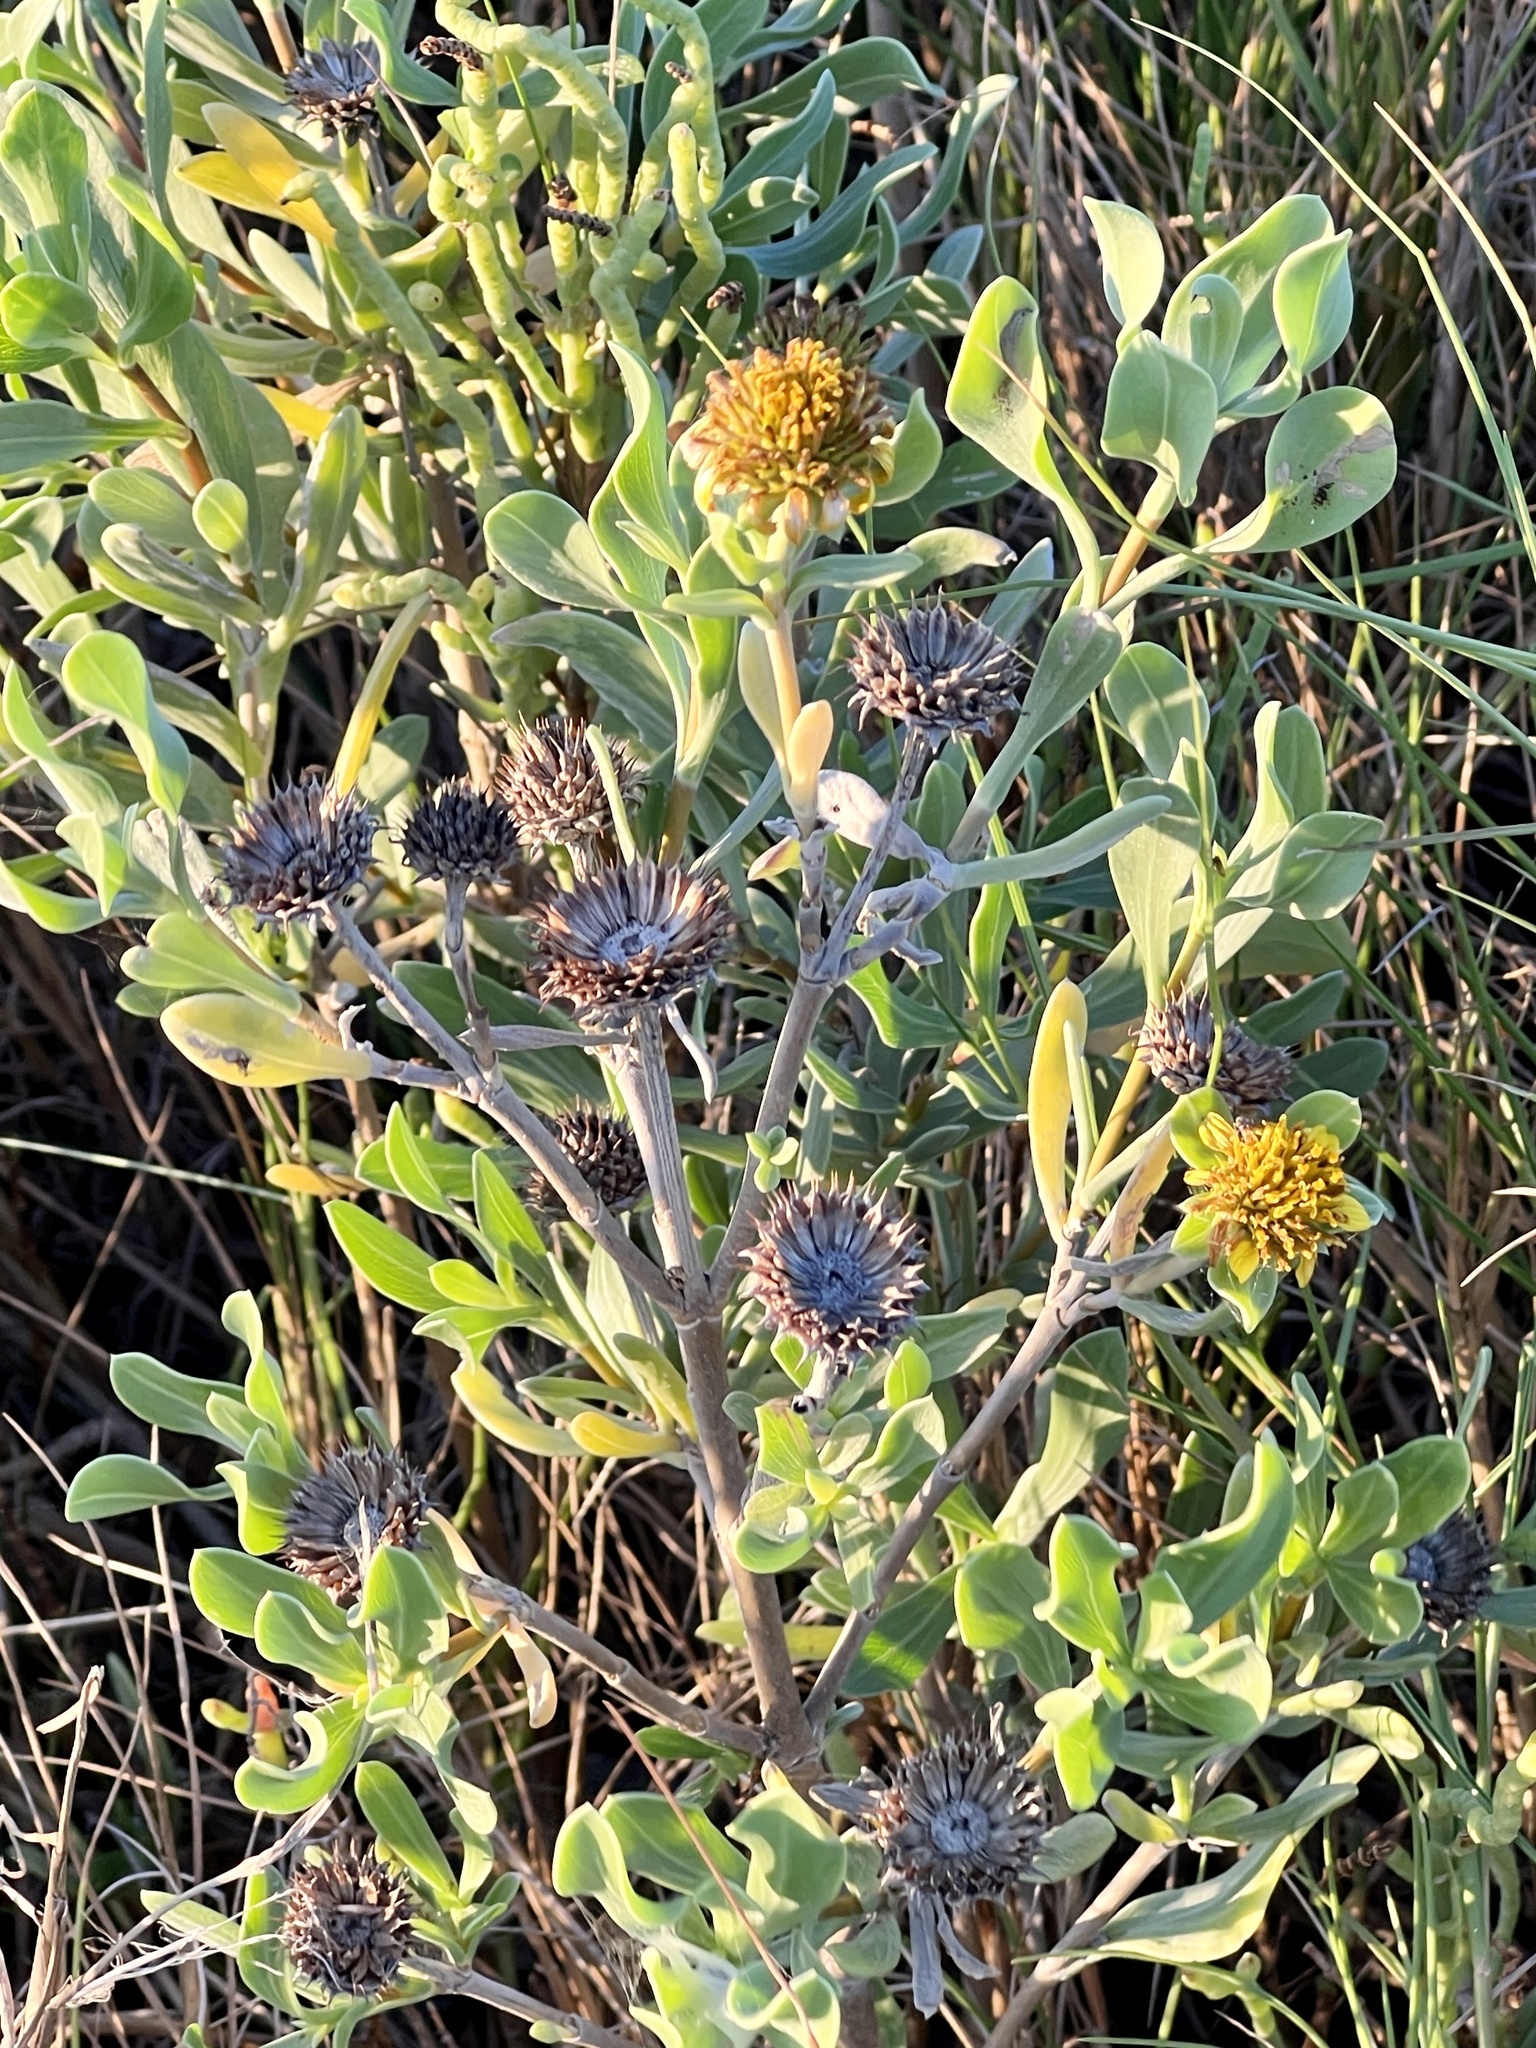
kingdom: Plantae
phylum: Tracheophyta
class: Magnoliopsida
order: Asterales
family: Asteraceae
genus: Borrichia
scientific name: Borrichia frutescens
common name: Sea oxeye
